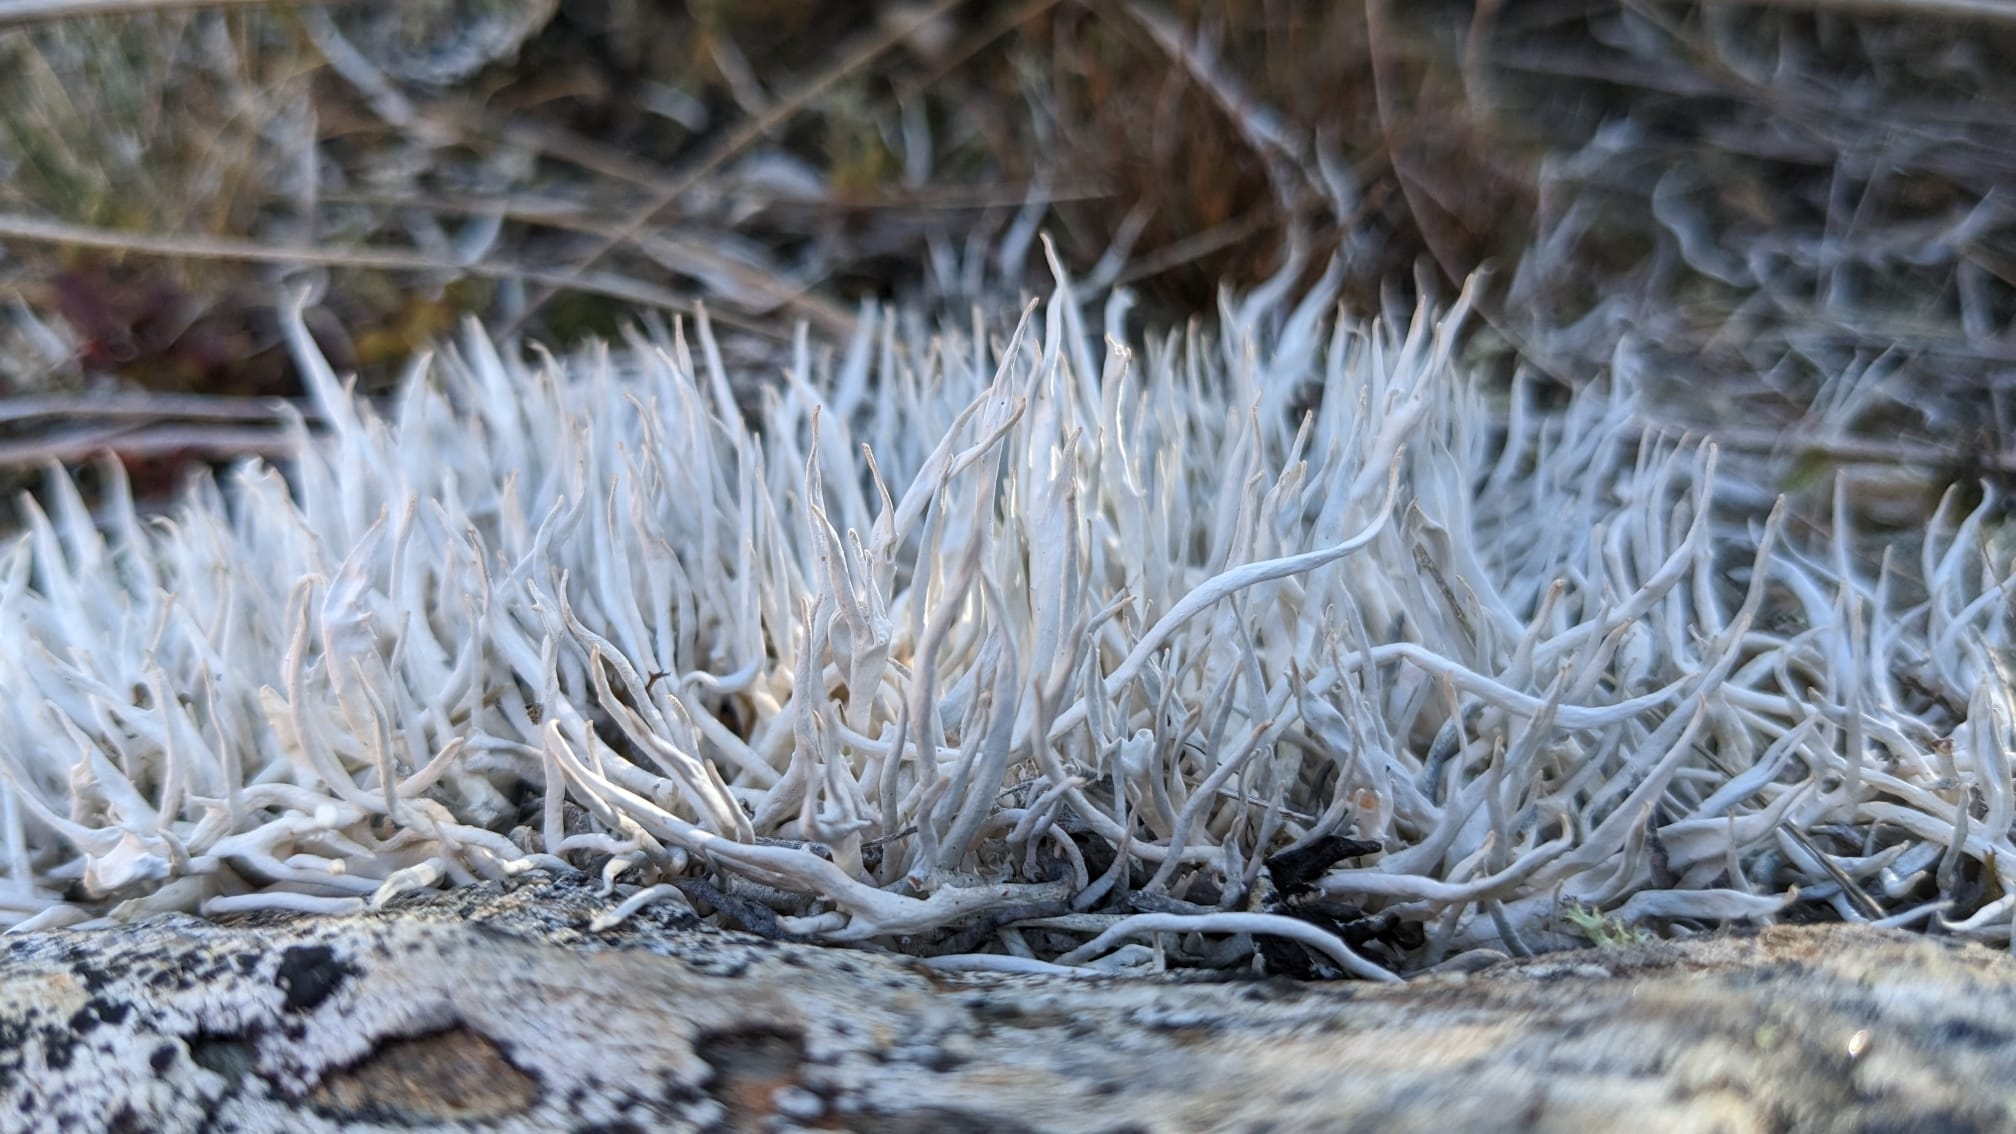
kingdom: Fungi
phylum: Ascomycota
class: Lecanoromycetes
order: Pertusariales
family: Icmadophilaceae
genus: Thamnolia
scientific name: Thamnolia vermicularis
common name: Whiteworm lichen
